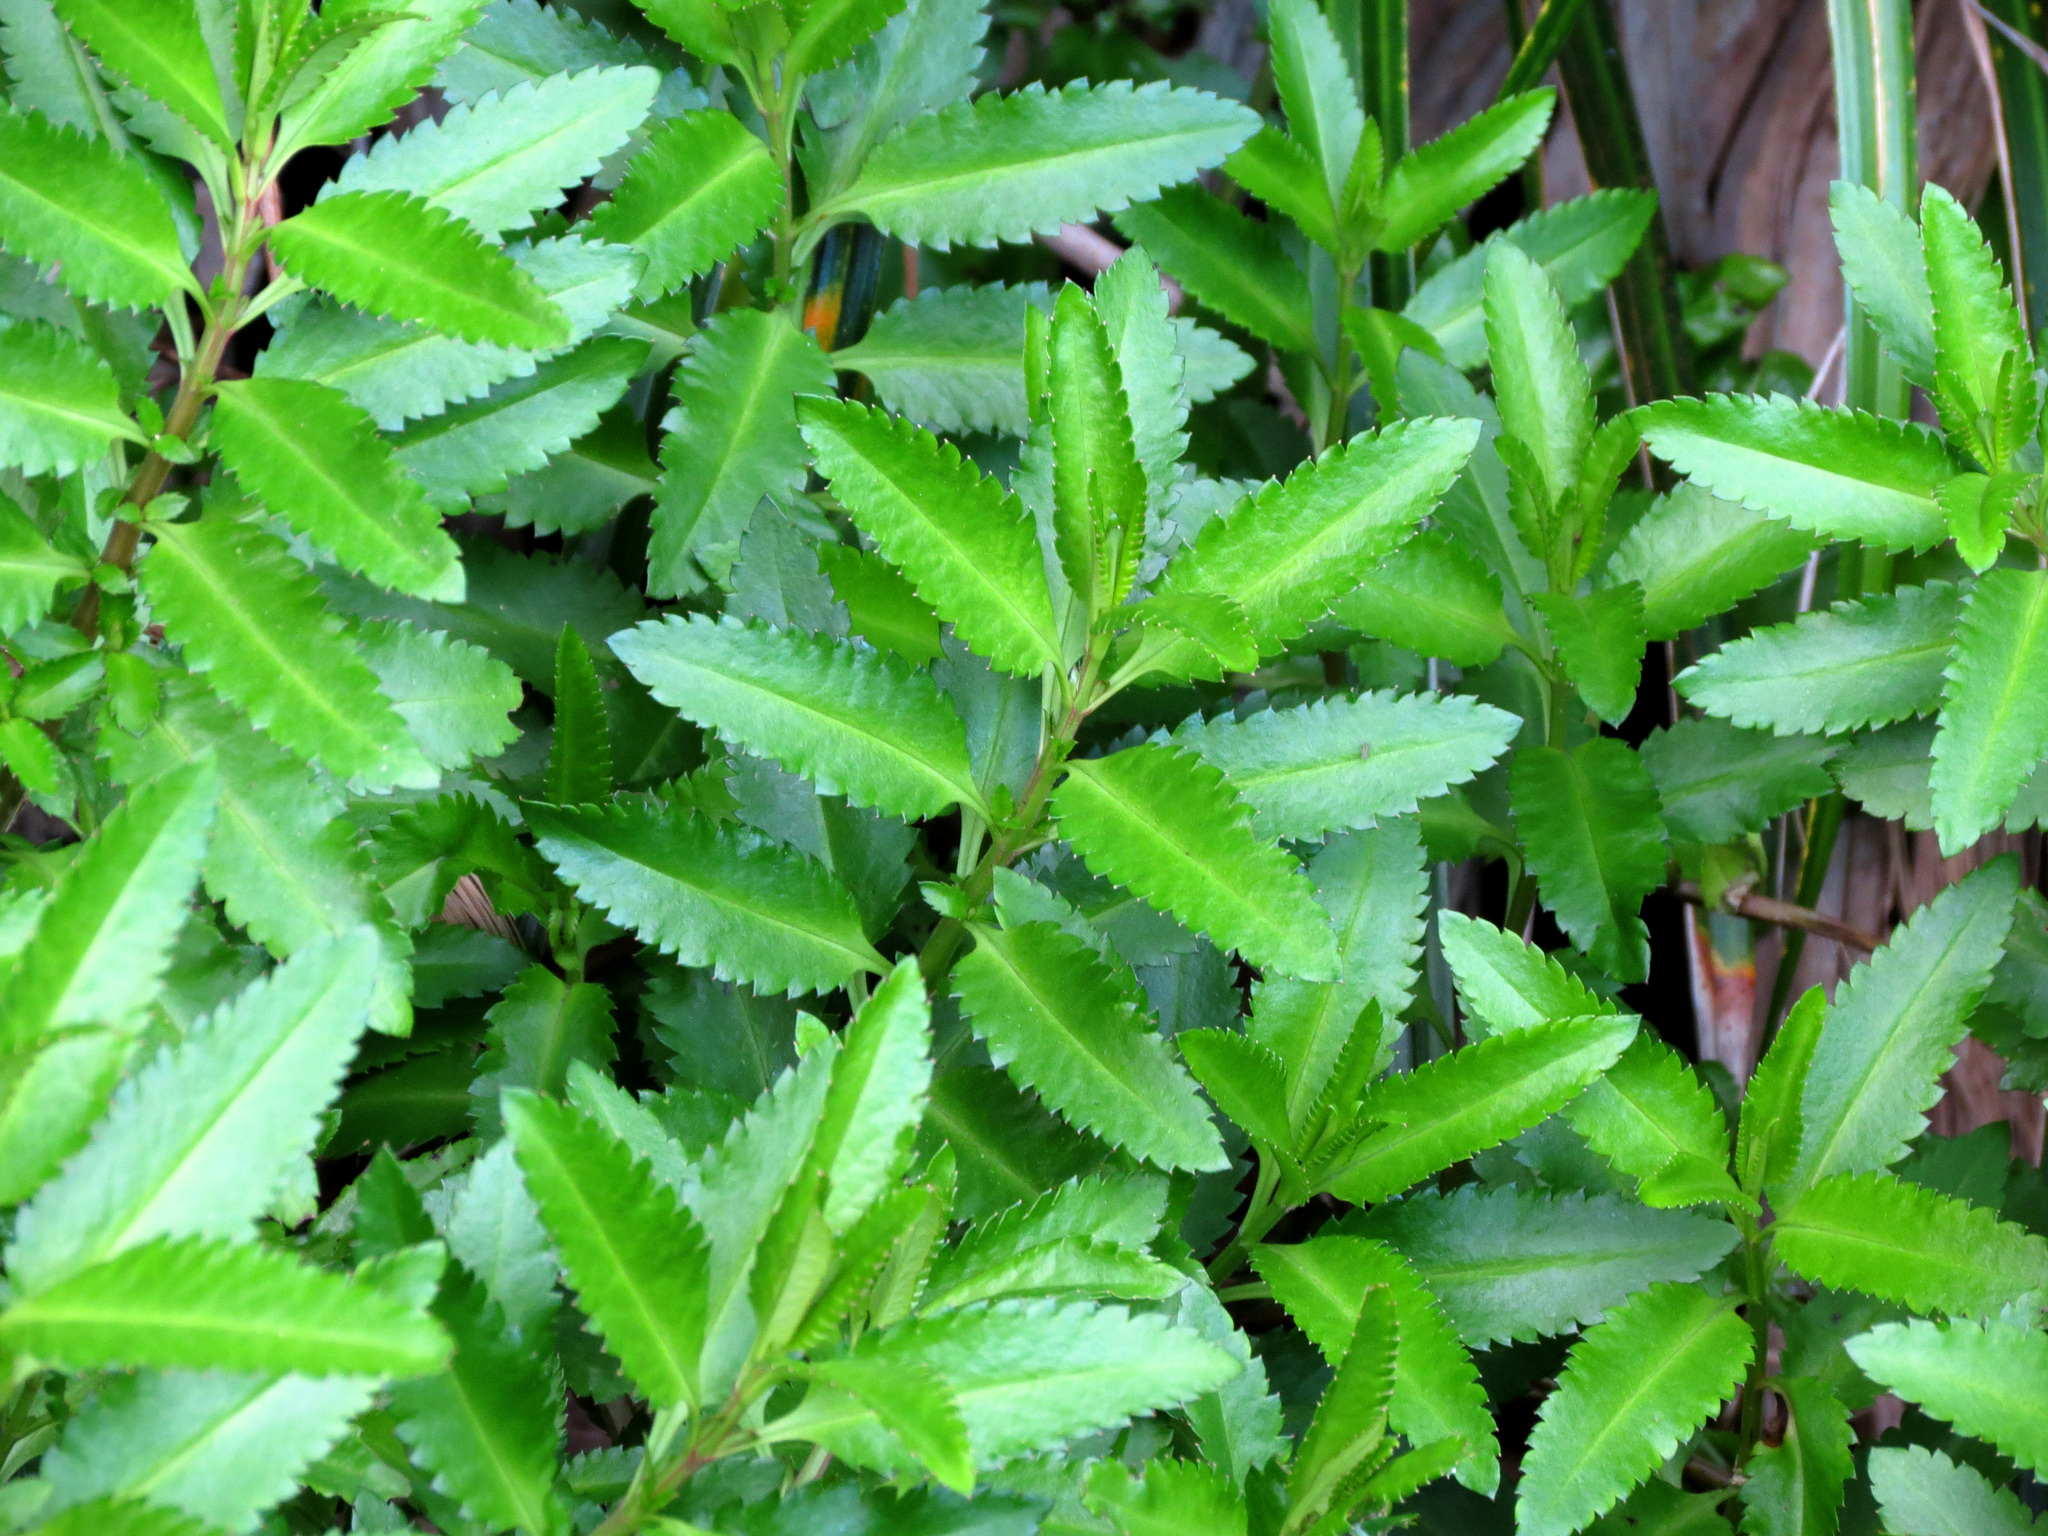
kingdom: Plantae
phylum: Tracheophyta
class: Magnoliopsida
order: Saxifragales
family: Haloragaceae
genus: Haloragis
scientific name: Haloragis erecta
